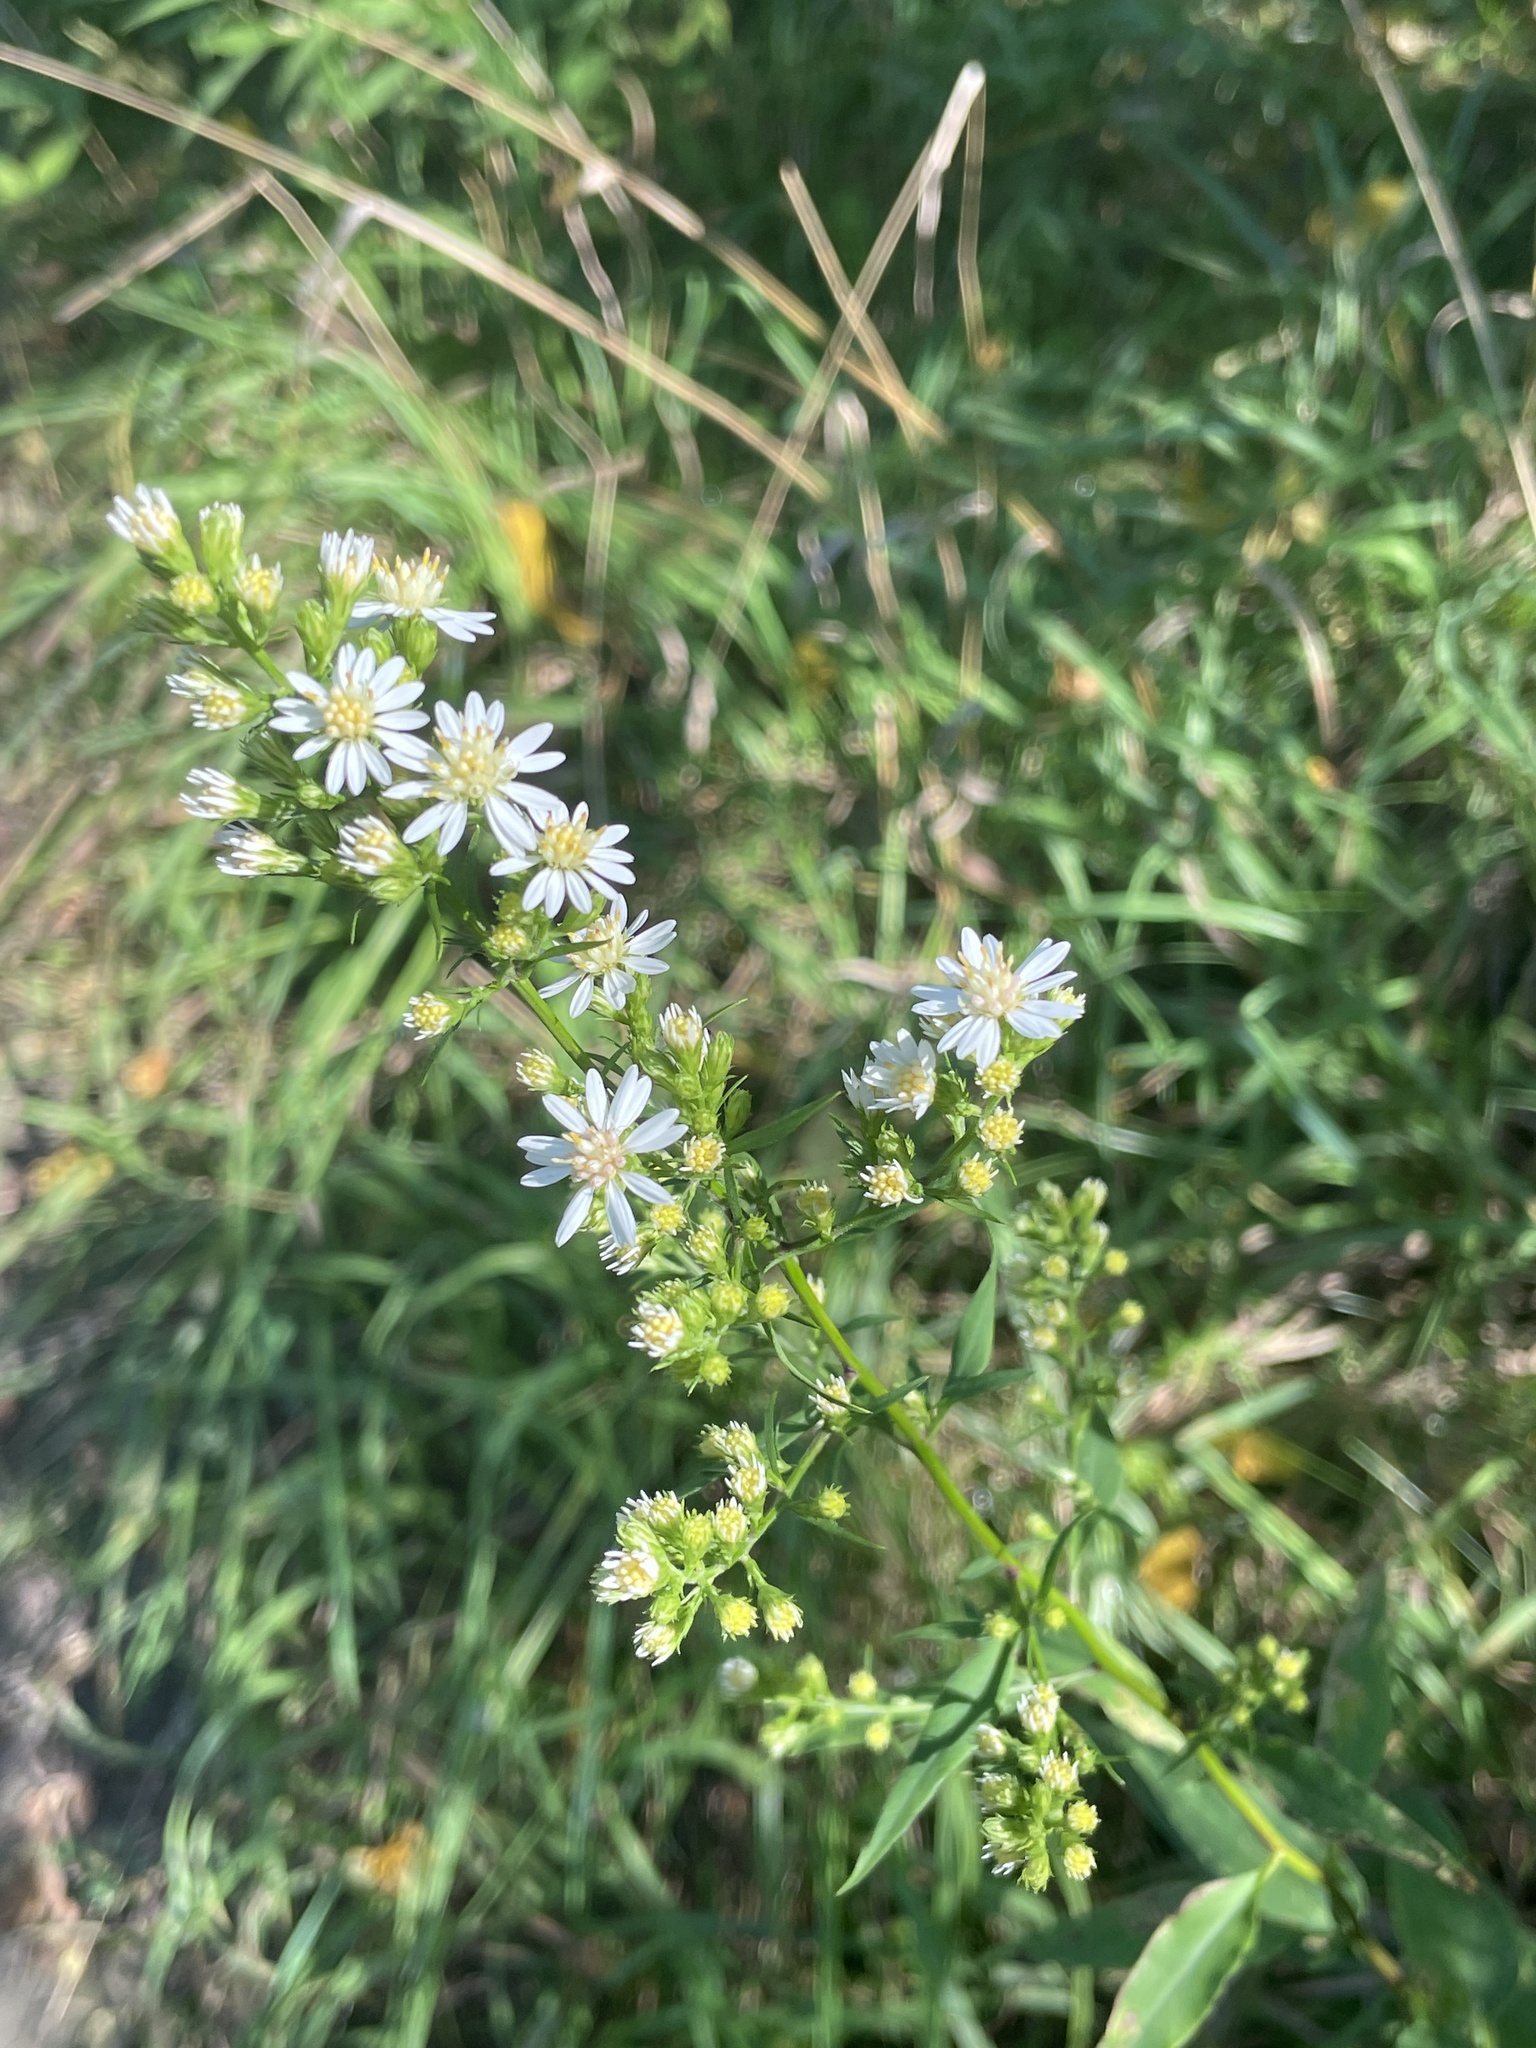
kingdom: Plantae
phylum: Tracheophyta
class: Magnoliopsida
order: Asterales
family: Asteraceae
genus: Symphyotrichum
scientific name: Symphyotrichum urophyllum
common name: Arrow-leaved aster
